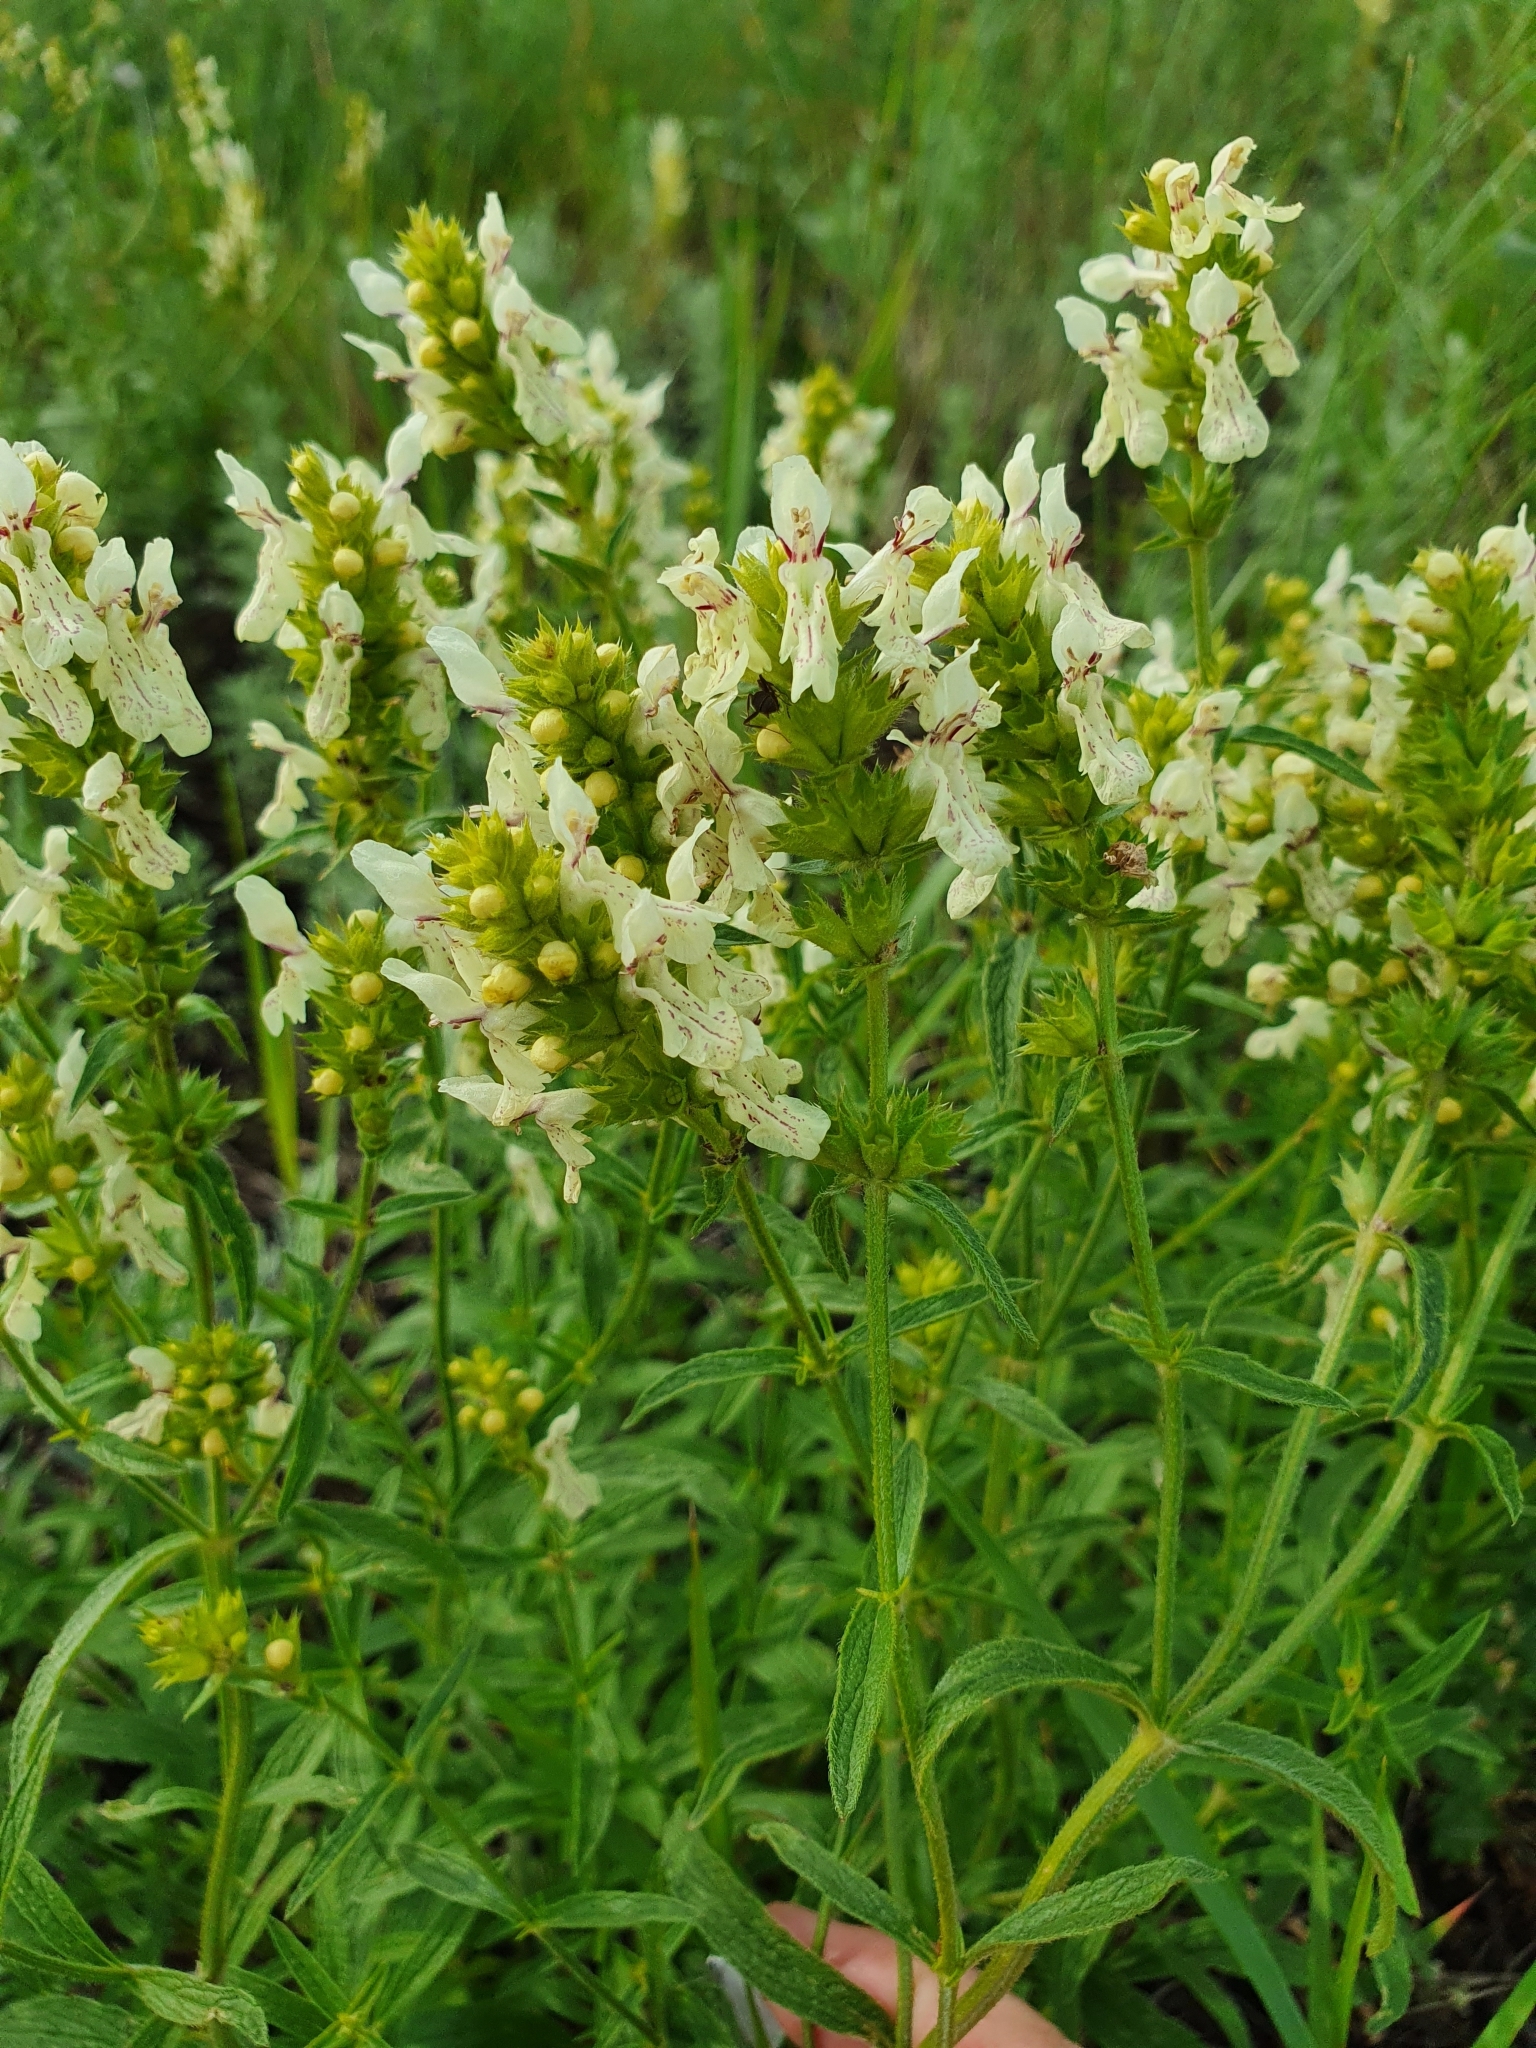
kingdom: Plantae
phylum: Tracheophyta
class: Magnoliopsida
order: Lamiales
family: Lamiaceae
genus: Stachys
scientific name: Stachys recta
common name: Perennial yellow-woundwort
